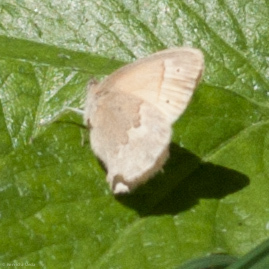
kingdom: Animalia
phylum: Arthropoda
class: Insecta
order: Lepidoptera
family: Nymphalidae
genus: Coenonympha
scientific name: Coenonympha california
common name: Common ringlet
